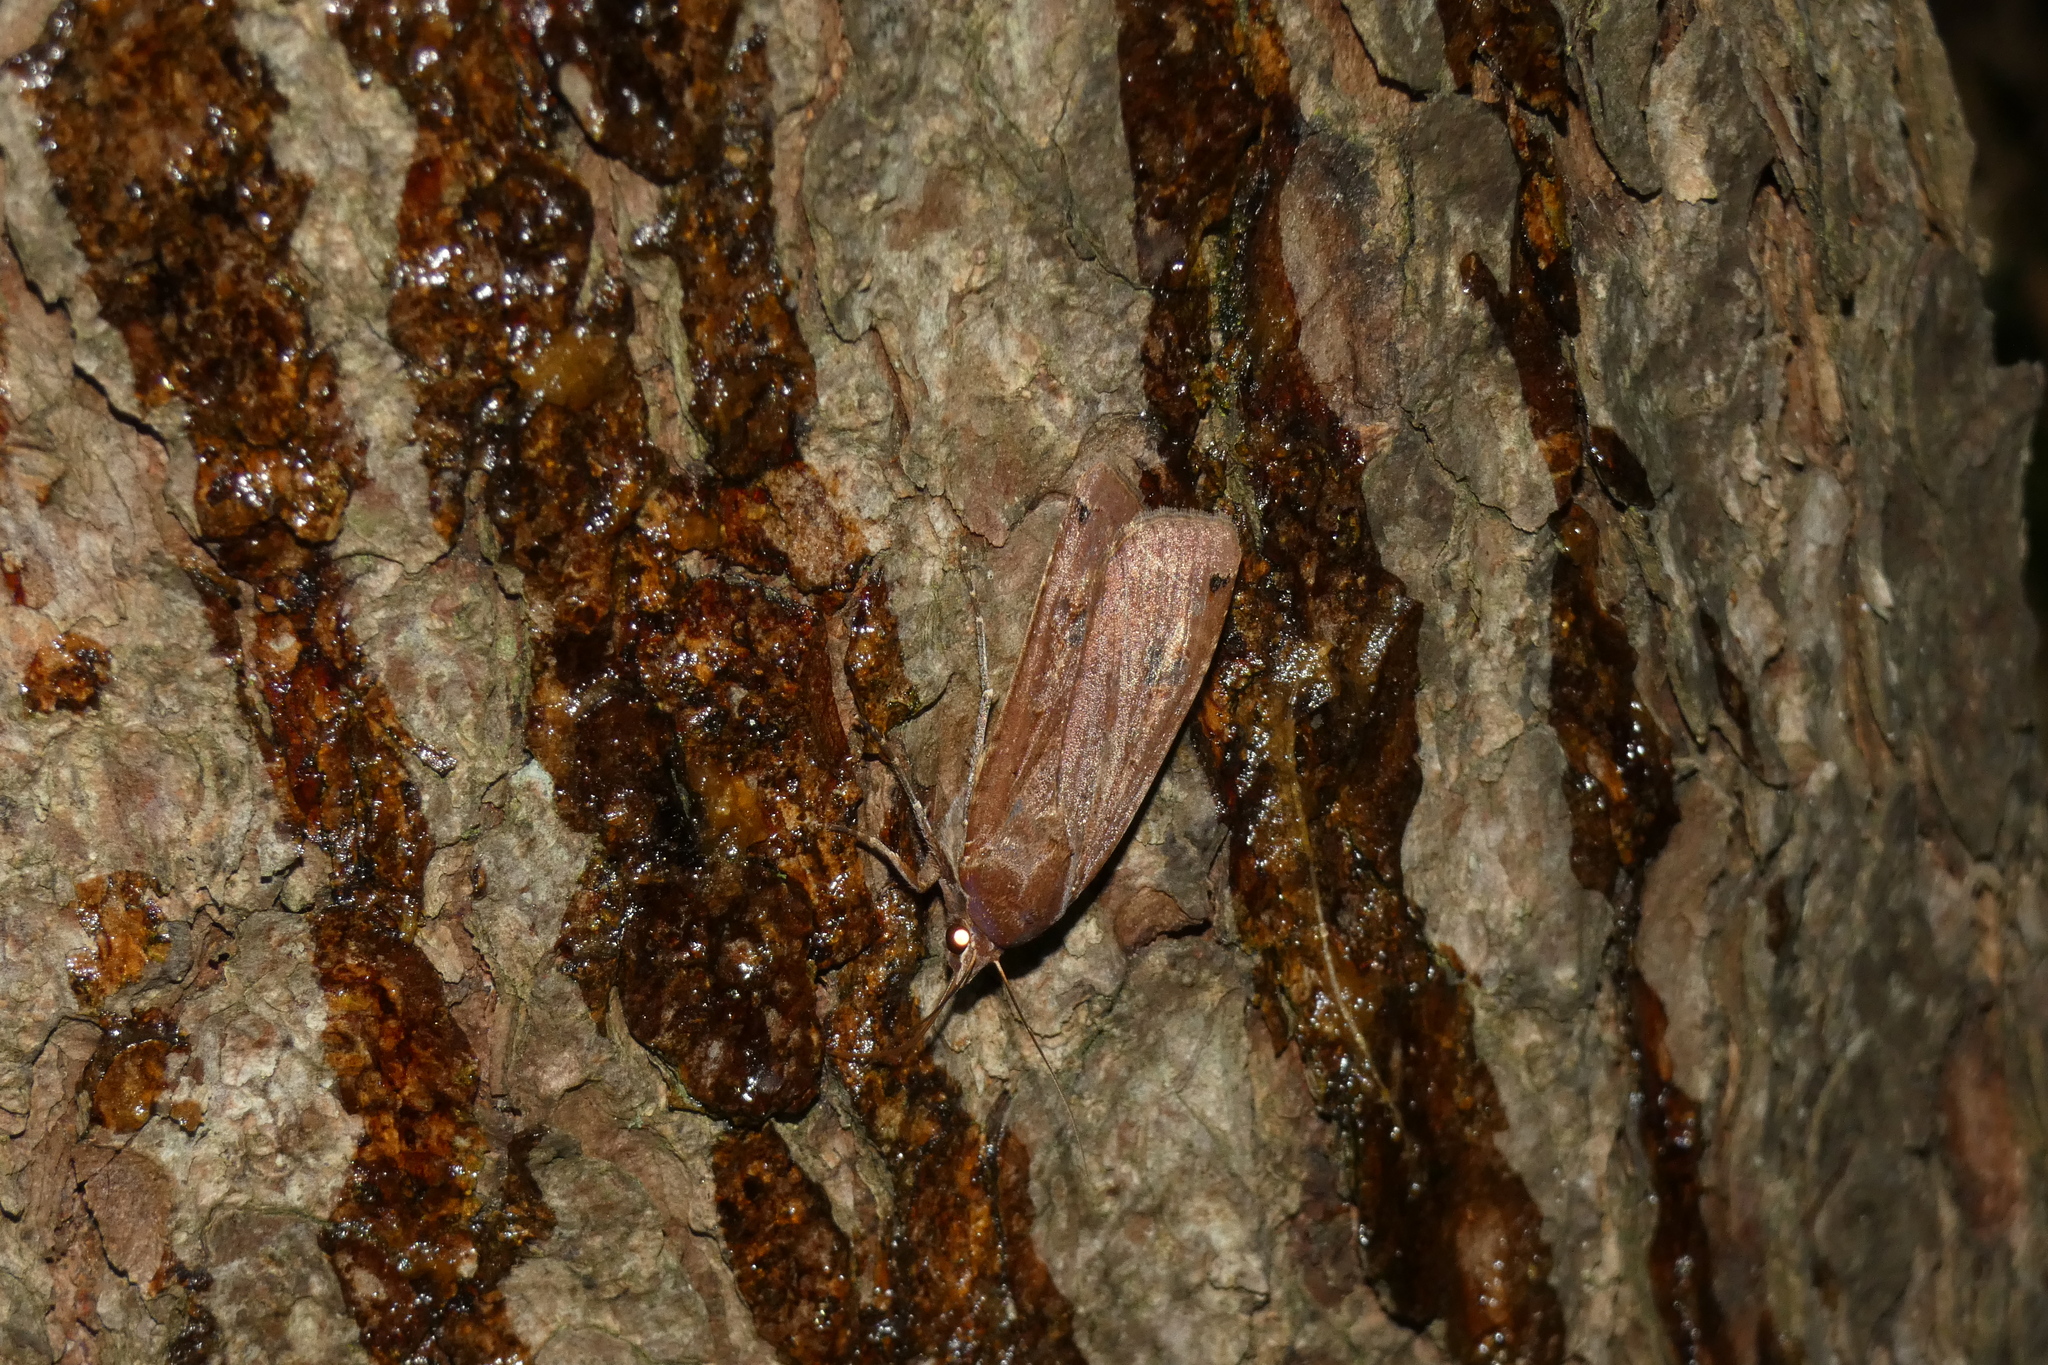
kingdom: Animalia
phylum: Arthropoda
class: Insecta
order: Lepidoptera
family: Noctuidae
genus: Noctua
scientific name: Noctua pronuba
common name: Large yellow underwing
